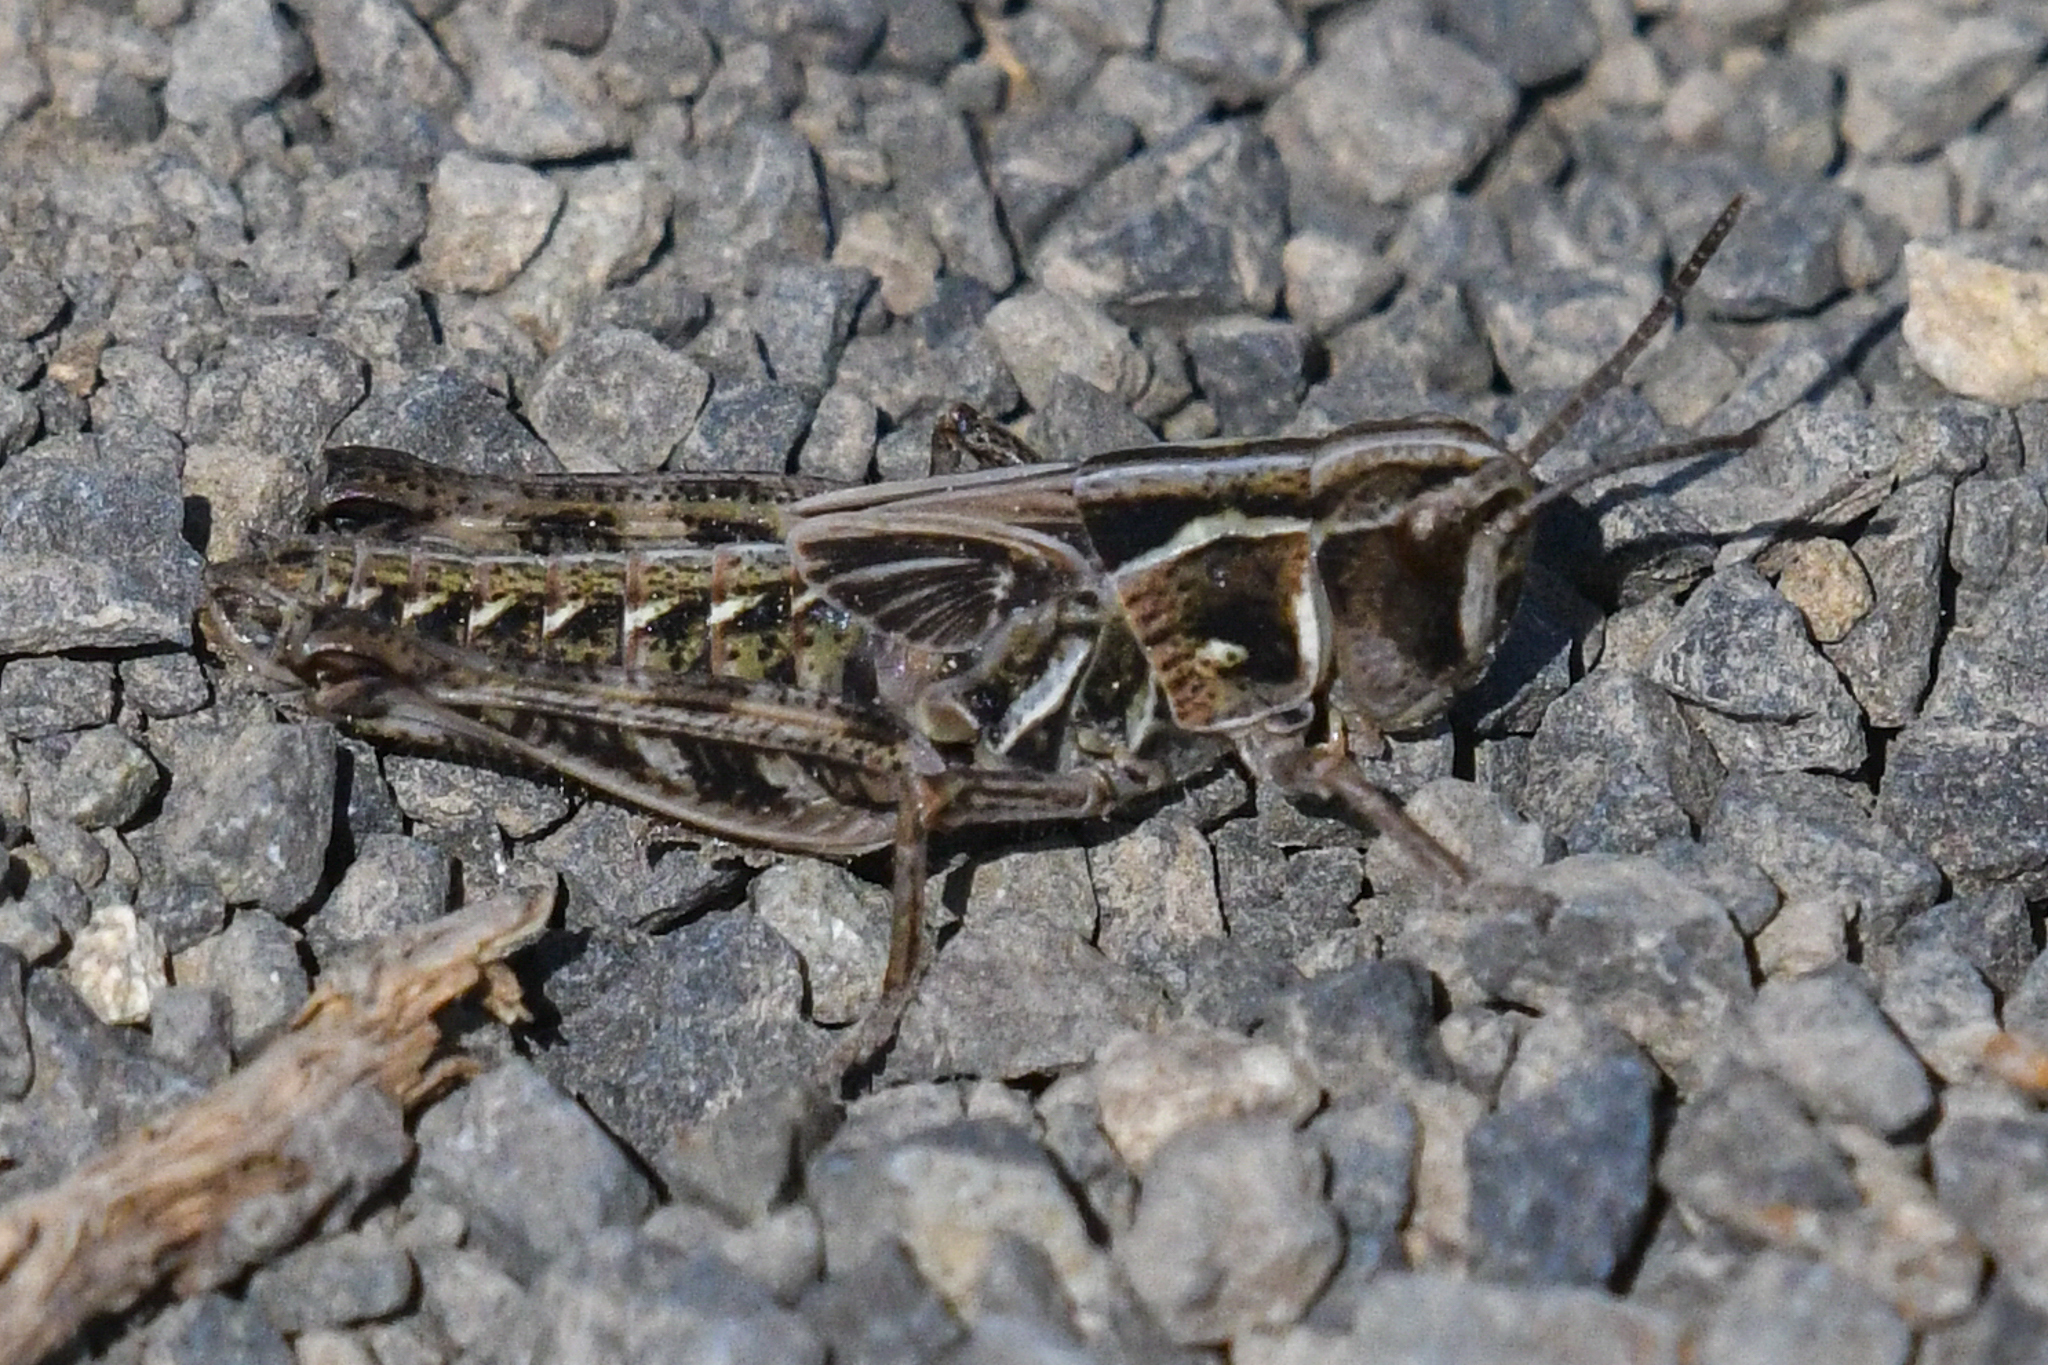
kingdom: Animalia
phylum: Arthropoda
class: Insecta
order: Orthoptera
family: Acrididae
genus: Bruneria
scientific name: Bruneria brunnea
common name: Bruner slantfaced grasshopper
